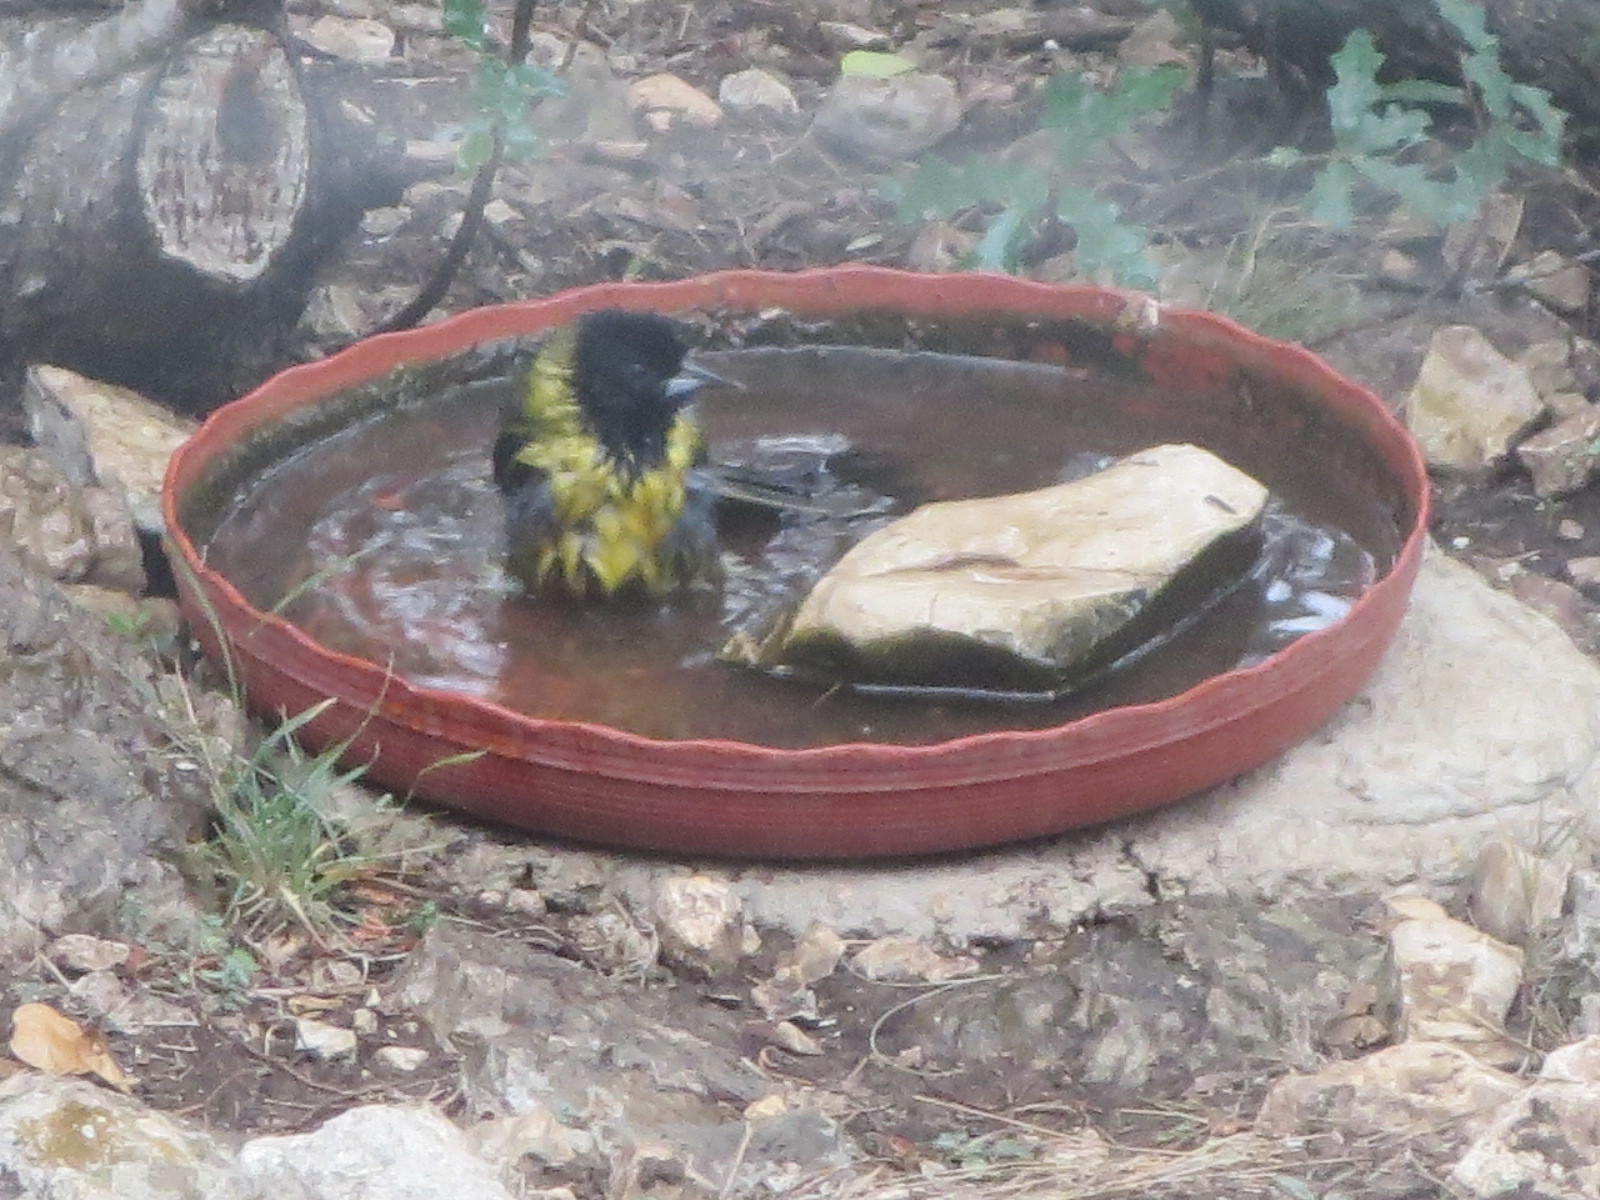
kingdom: Animalia
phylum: Chordata
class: Aves
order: Passeriformes
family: Icteridae
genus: Icterus
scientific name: Icterus graduacauda
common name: Audubon's oriole
